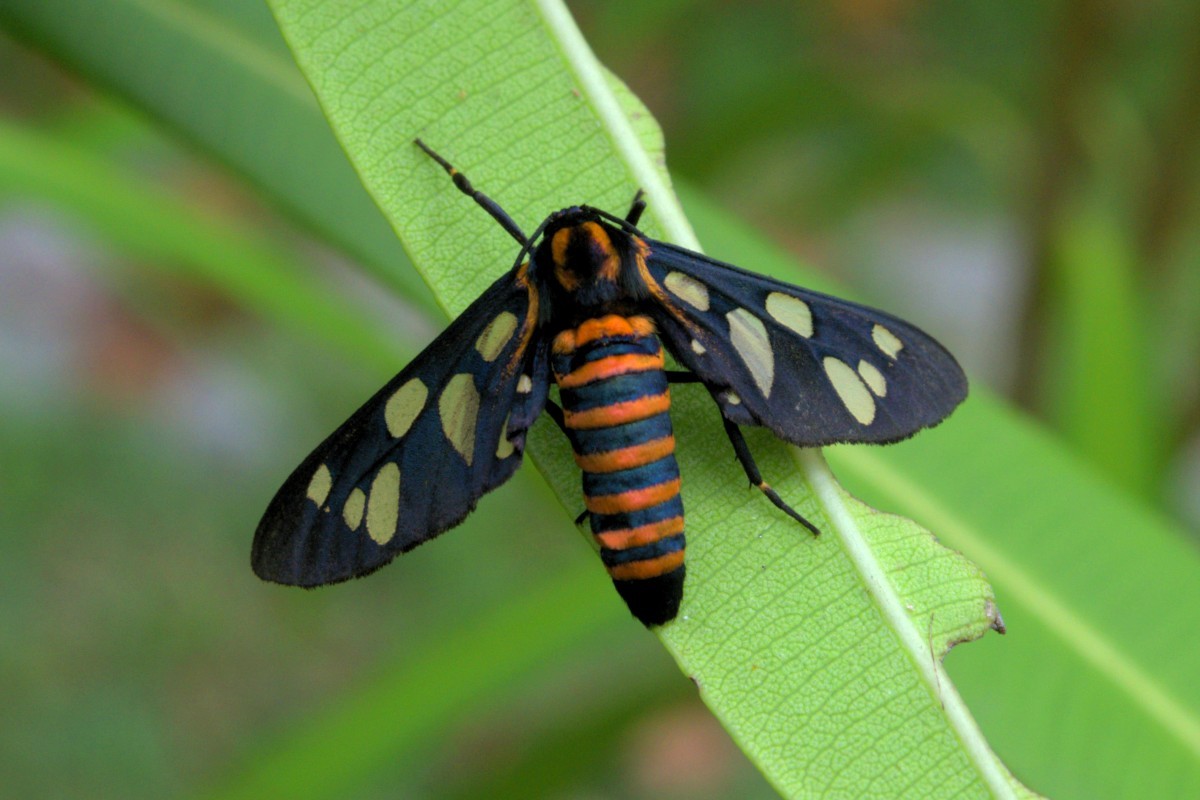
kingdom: Animalia
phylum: Arthropoda
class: Insecta
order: Lepidoptera
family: Erebidae
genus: Amata
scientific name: Amata passalis
